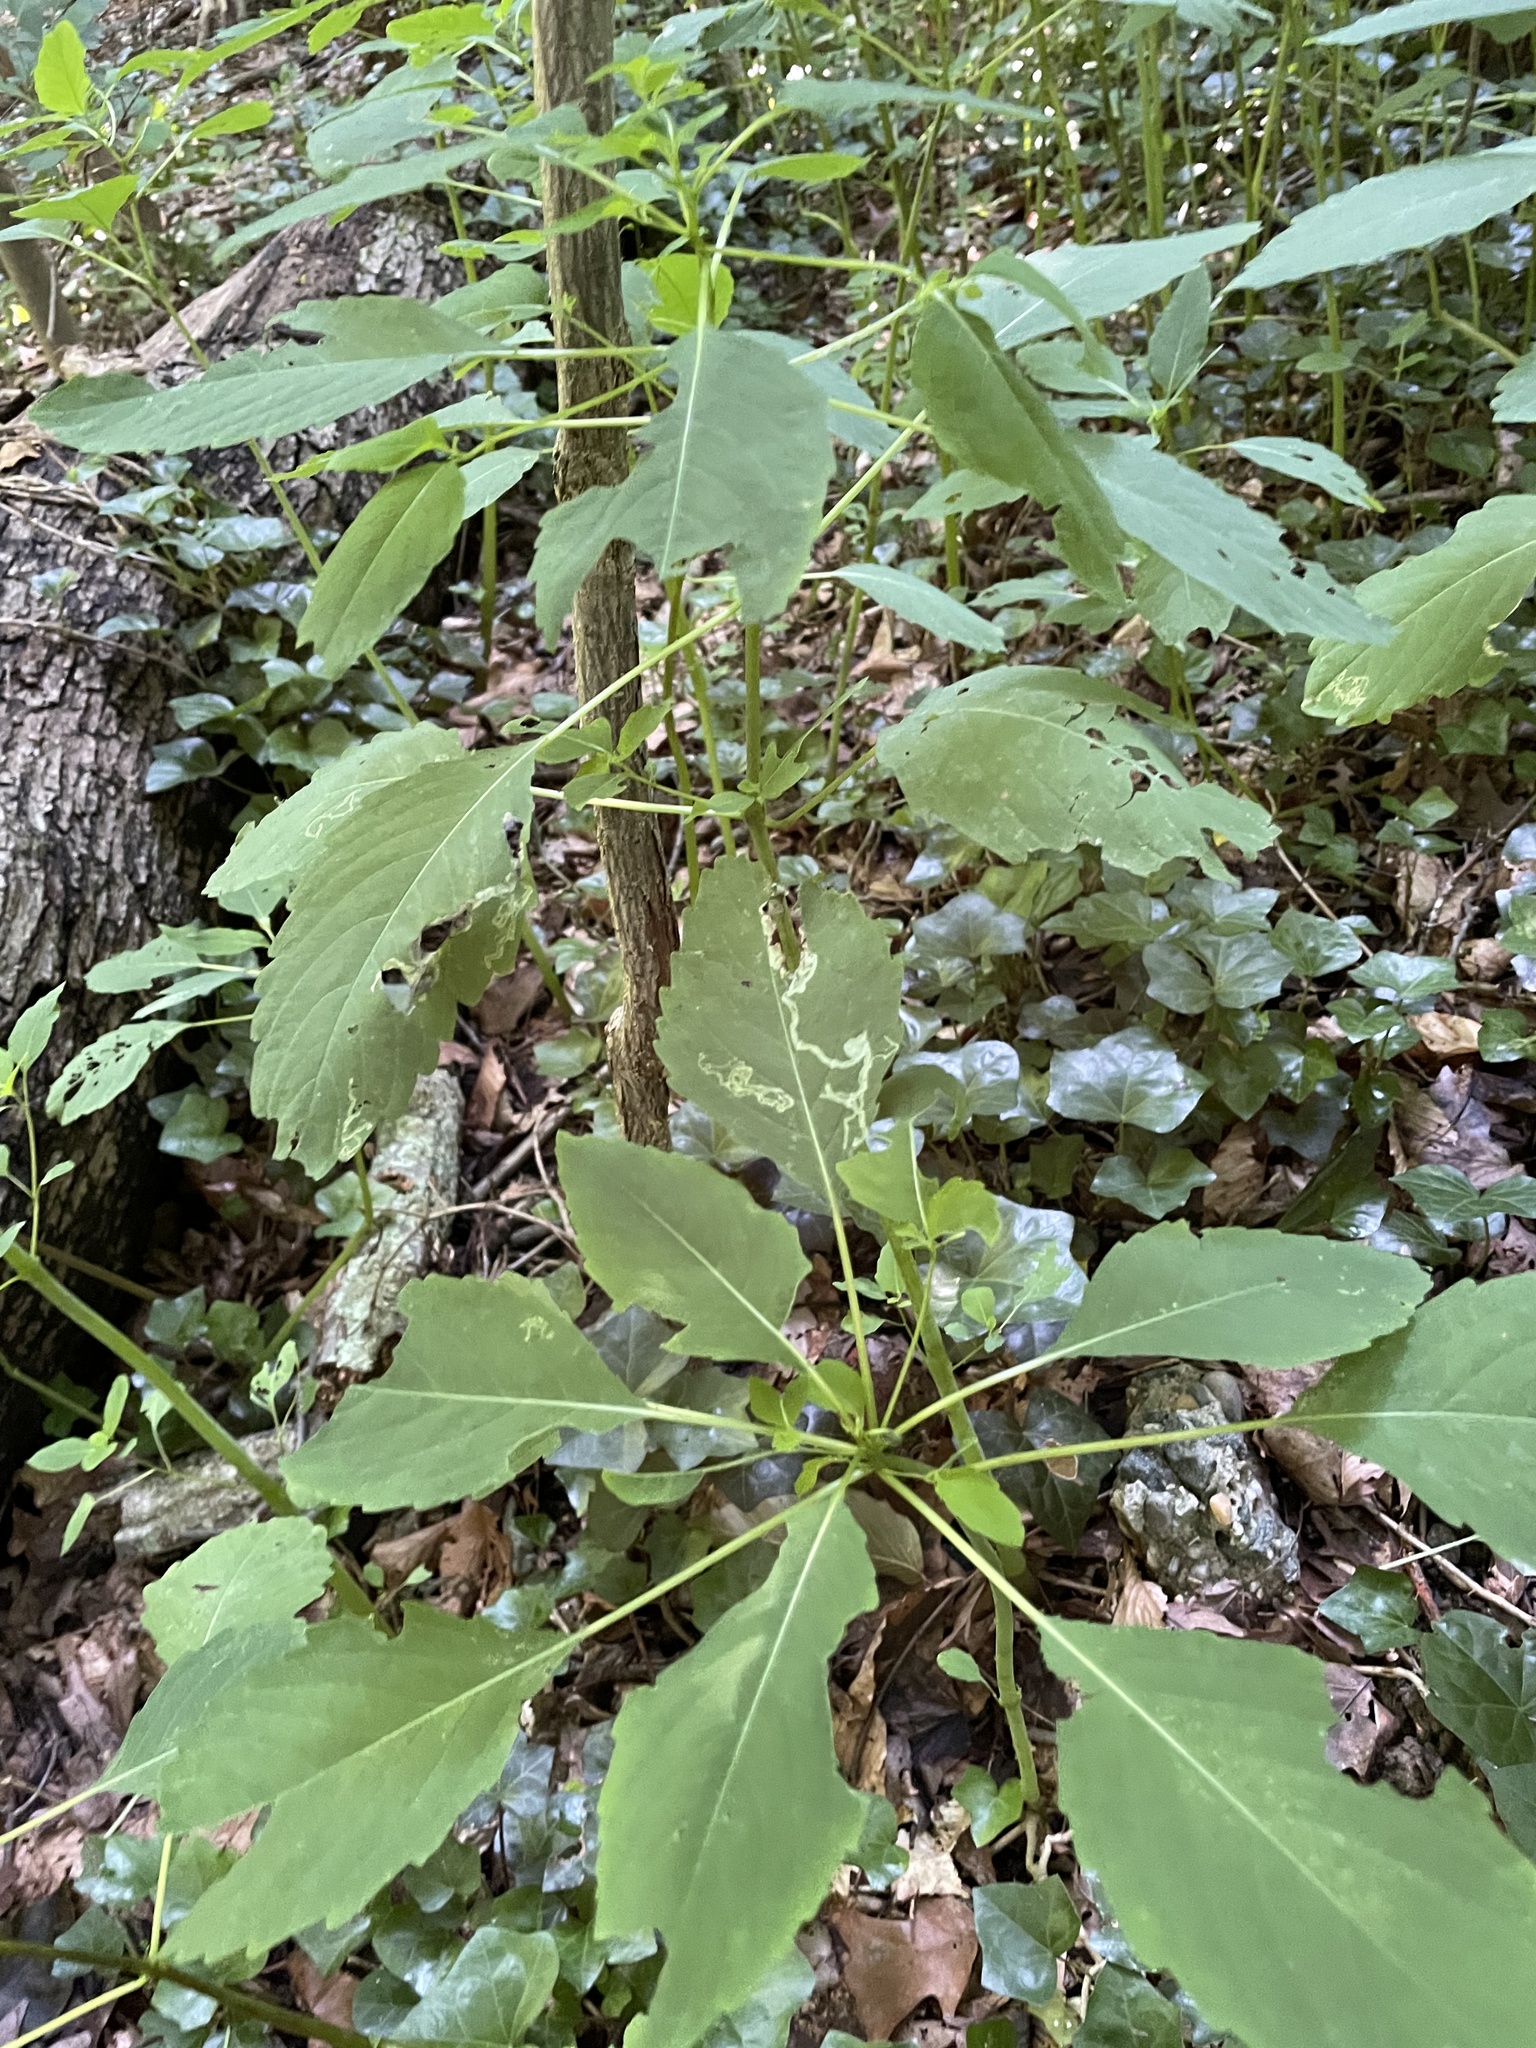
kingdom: Plantae
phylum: Tracheophyta
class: Magnoliopsida
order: Ericales
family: Balsaminaceae
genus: Impatiens
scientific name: Impatiens capensis
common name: Orange balsam
